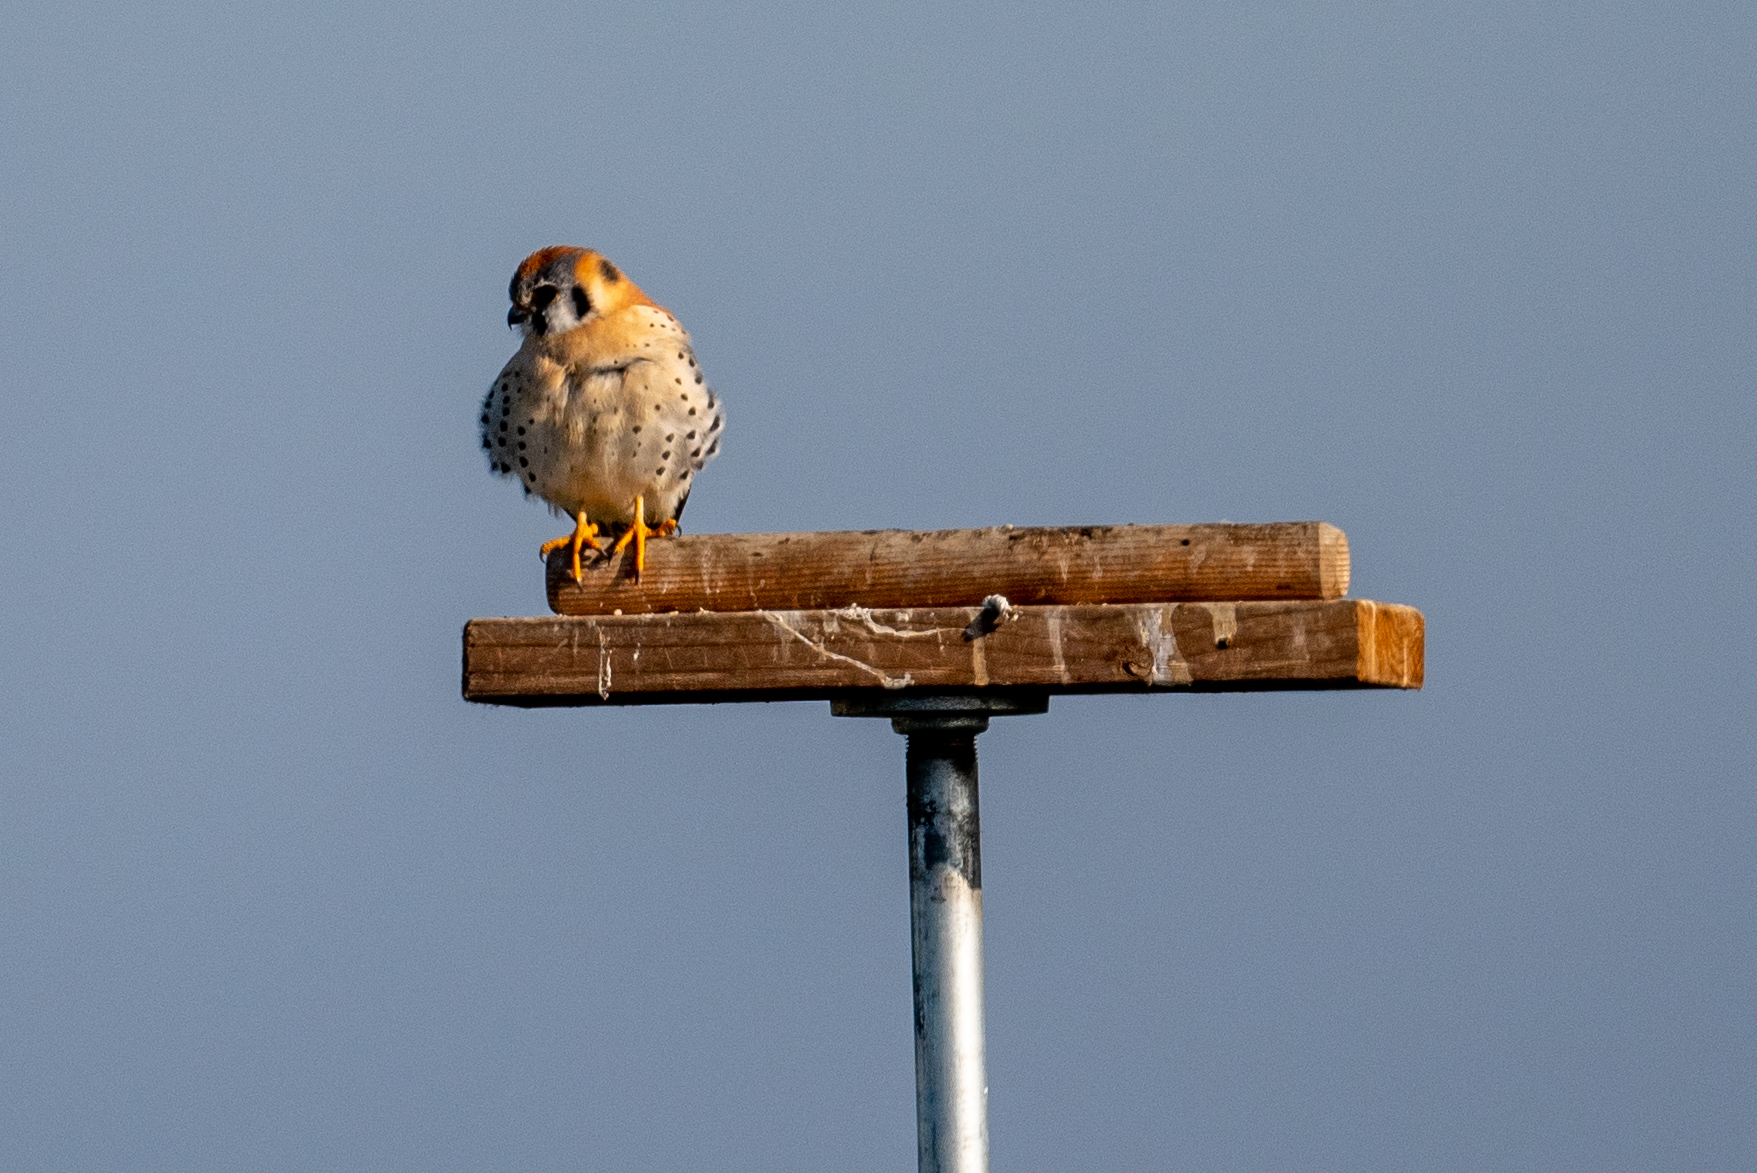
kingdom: Animalia
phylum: Chordata
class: Aves
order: Falconiformes
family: Falconidae
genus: Falco
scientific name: Falco sparverius
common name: American kestrel
